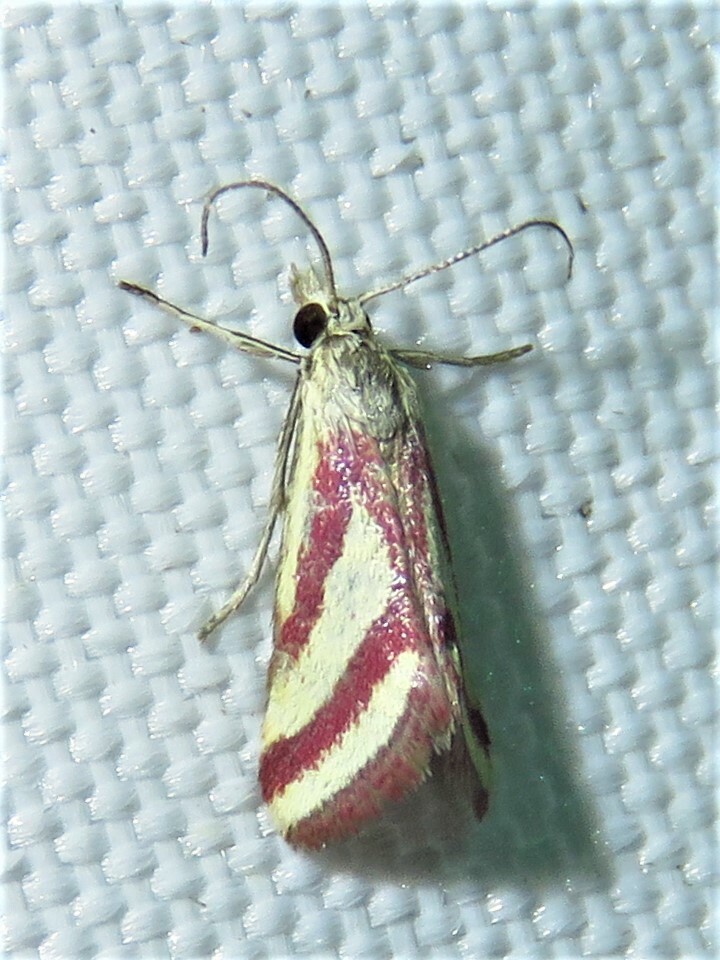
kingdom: Animalia
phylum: Arthropoda
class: Insecta
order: Lepidoptera
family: Crambidae
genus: Microtheoris
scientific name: Microtheoris vibicalis
